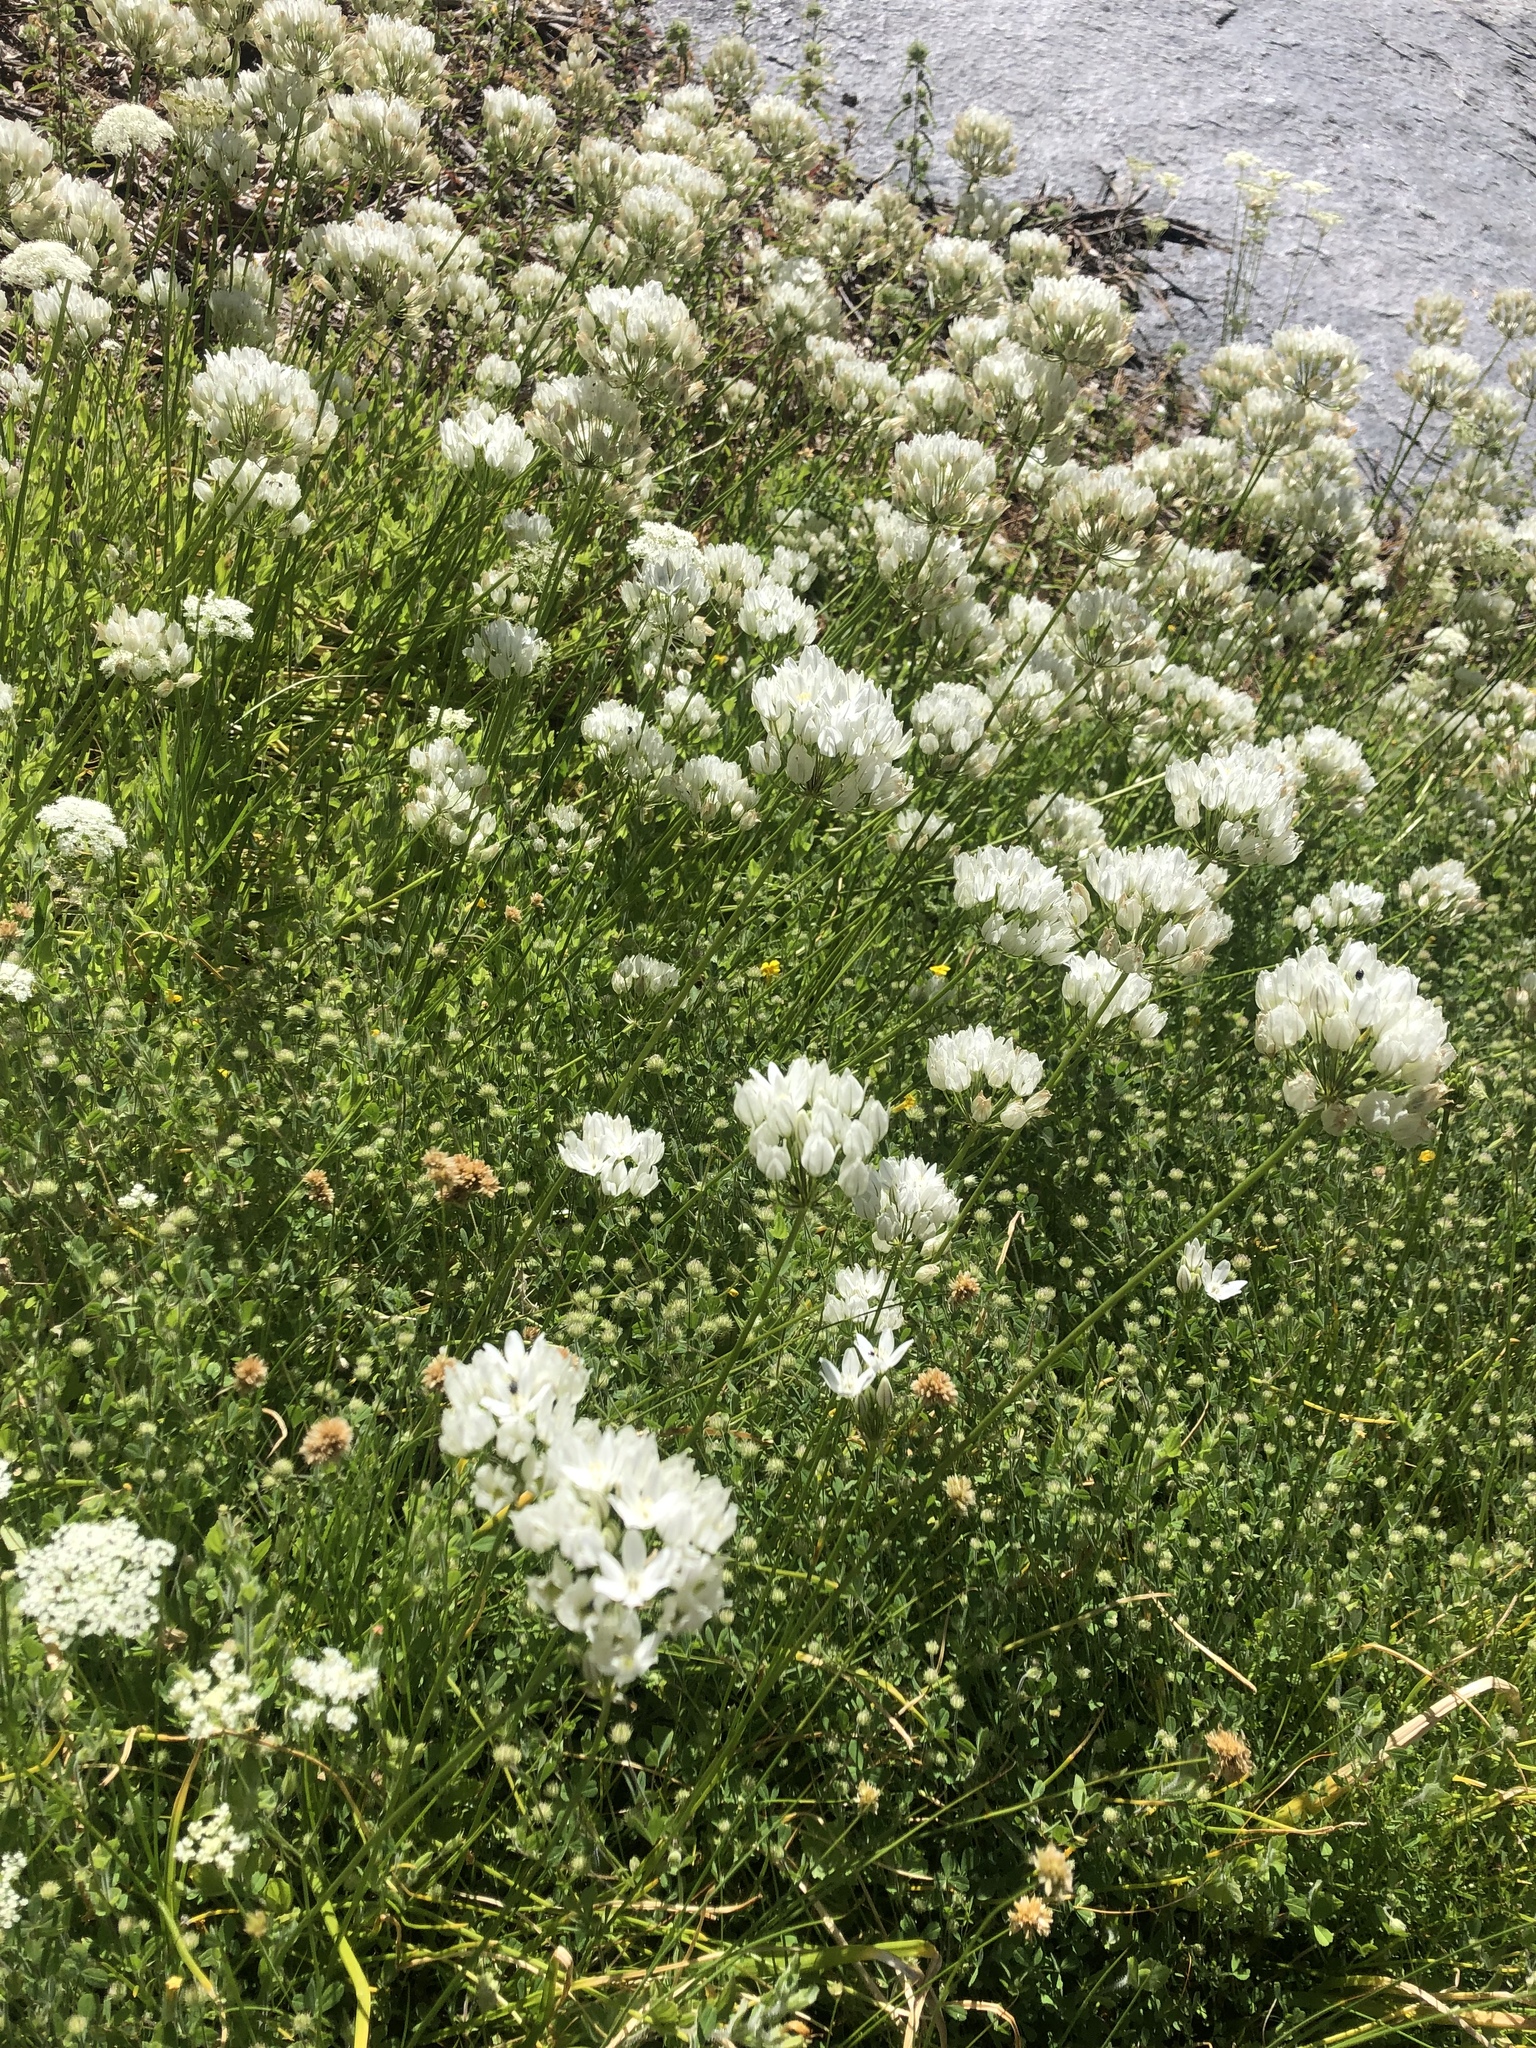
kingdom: Plantae
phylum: Tracheophyta
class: Liliopsida
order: Asparagales
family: Asparagaceae
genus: Triteleia
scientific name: Triteleia hyacinthina
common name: White brodiaea
